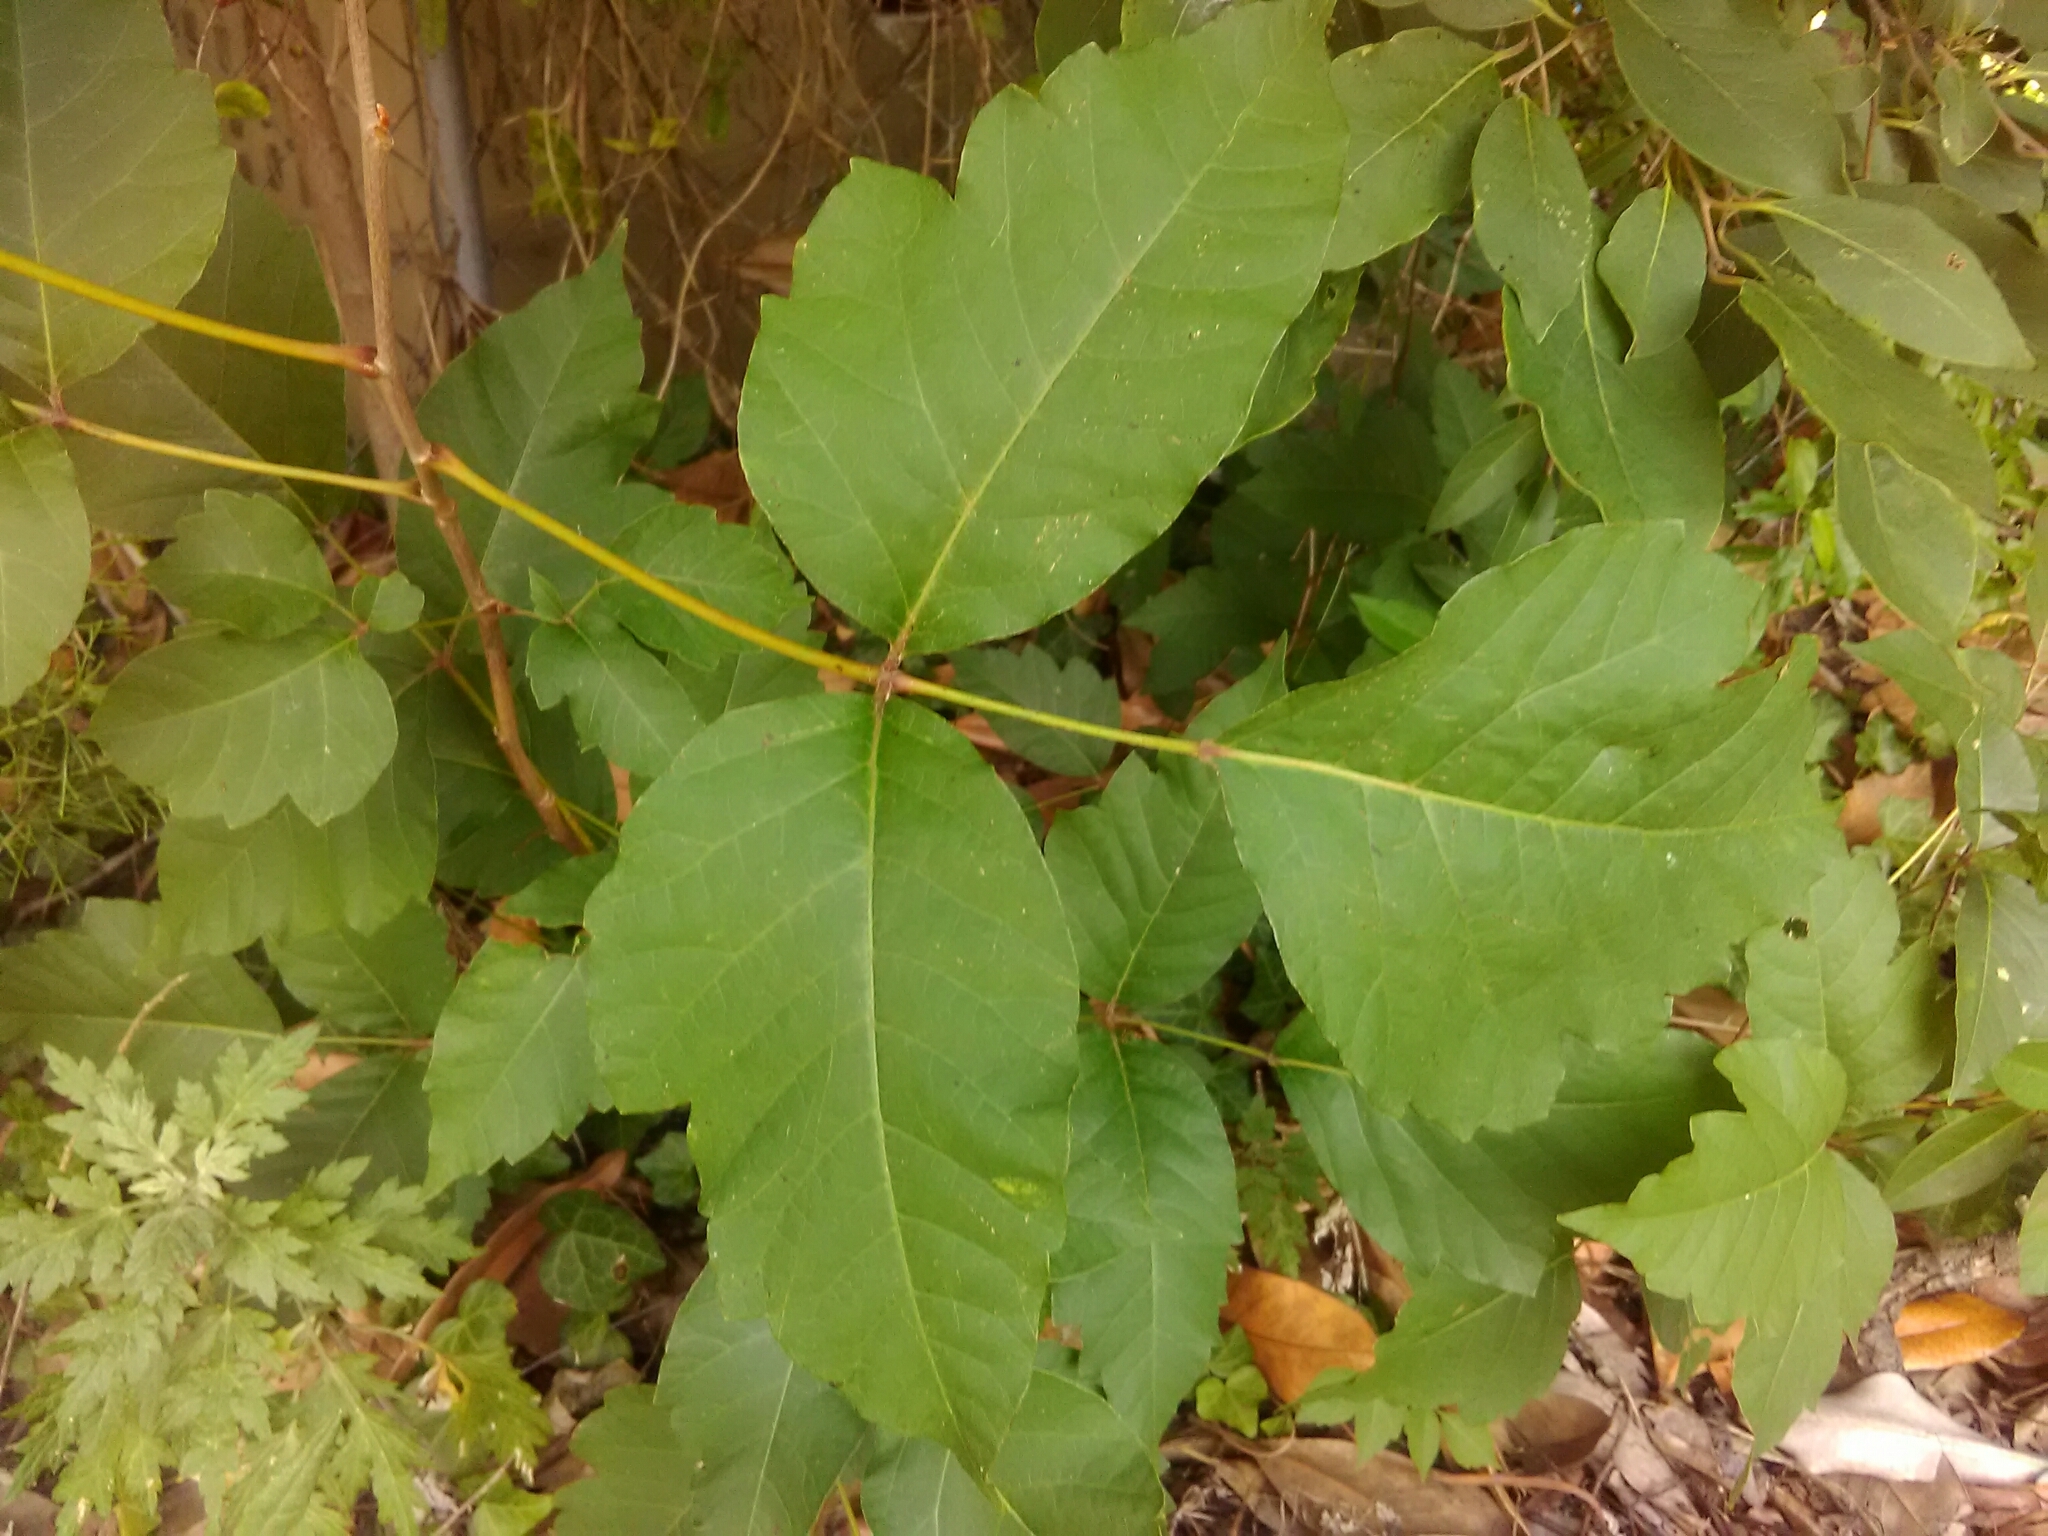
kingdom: Plantae
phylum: Tracheophyta
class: Magnoliopsida
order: Sapindales
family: Anacardiaceae
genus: Toxicodendron
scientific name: Toxicodendron radicans
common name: Poison ivy
